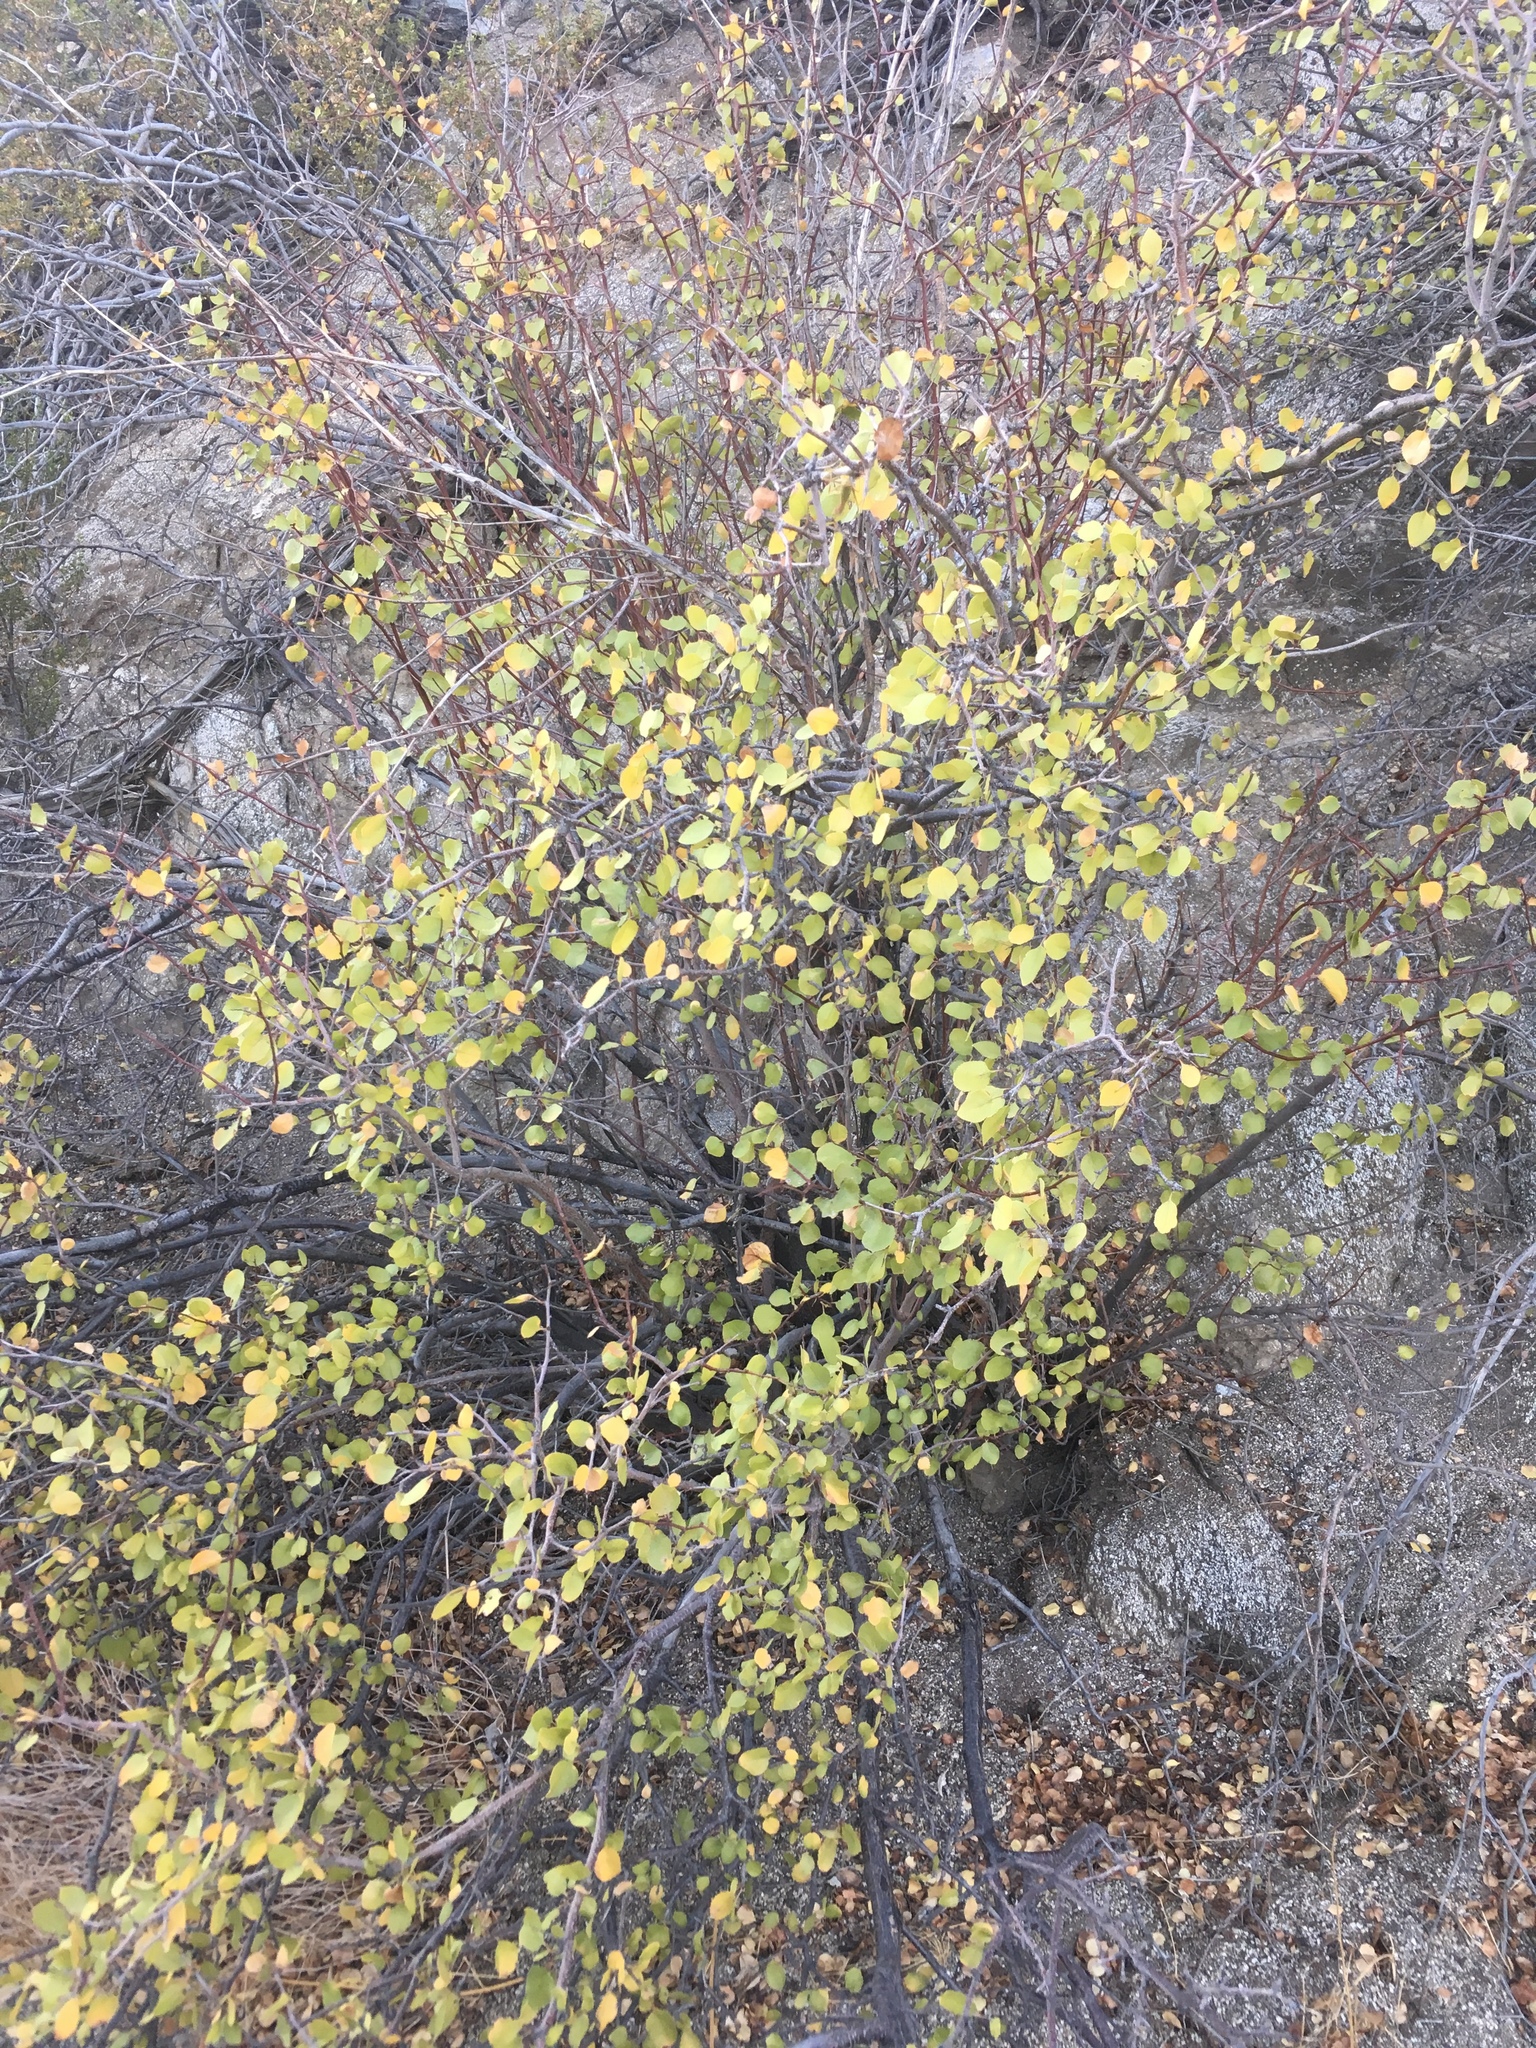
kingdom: Plantae
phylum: Tracheophyta
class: Magnoliopsida
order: Rosales
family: Rosaceae
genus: Prunus
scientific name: Prunus fremontii
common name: Desert apricot
